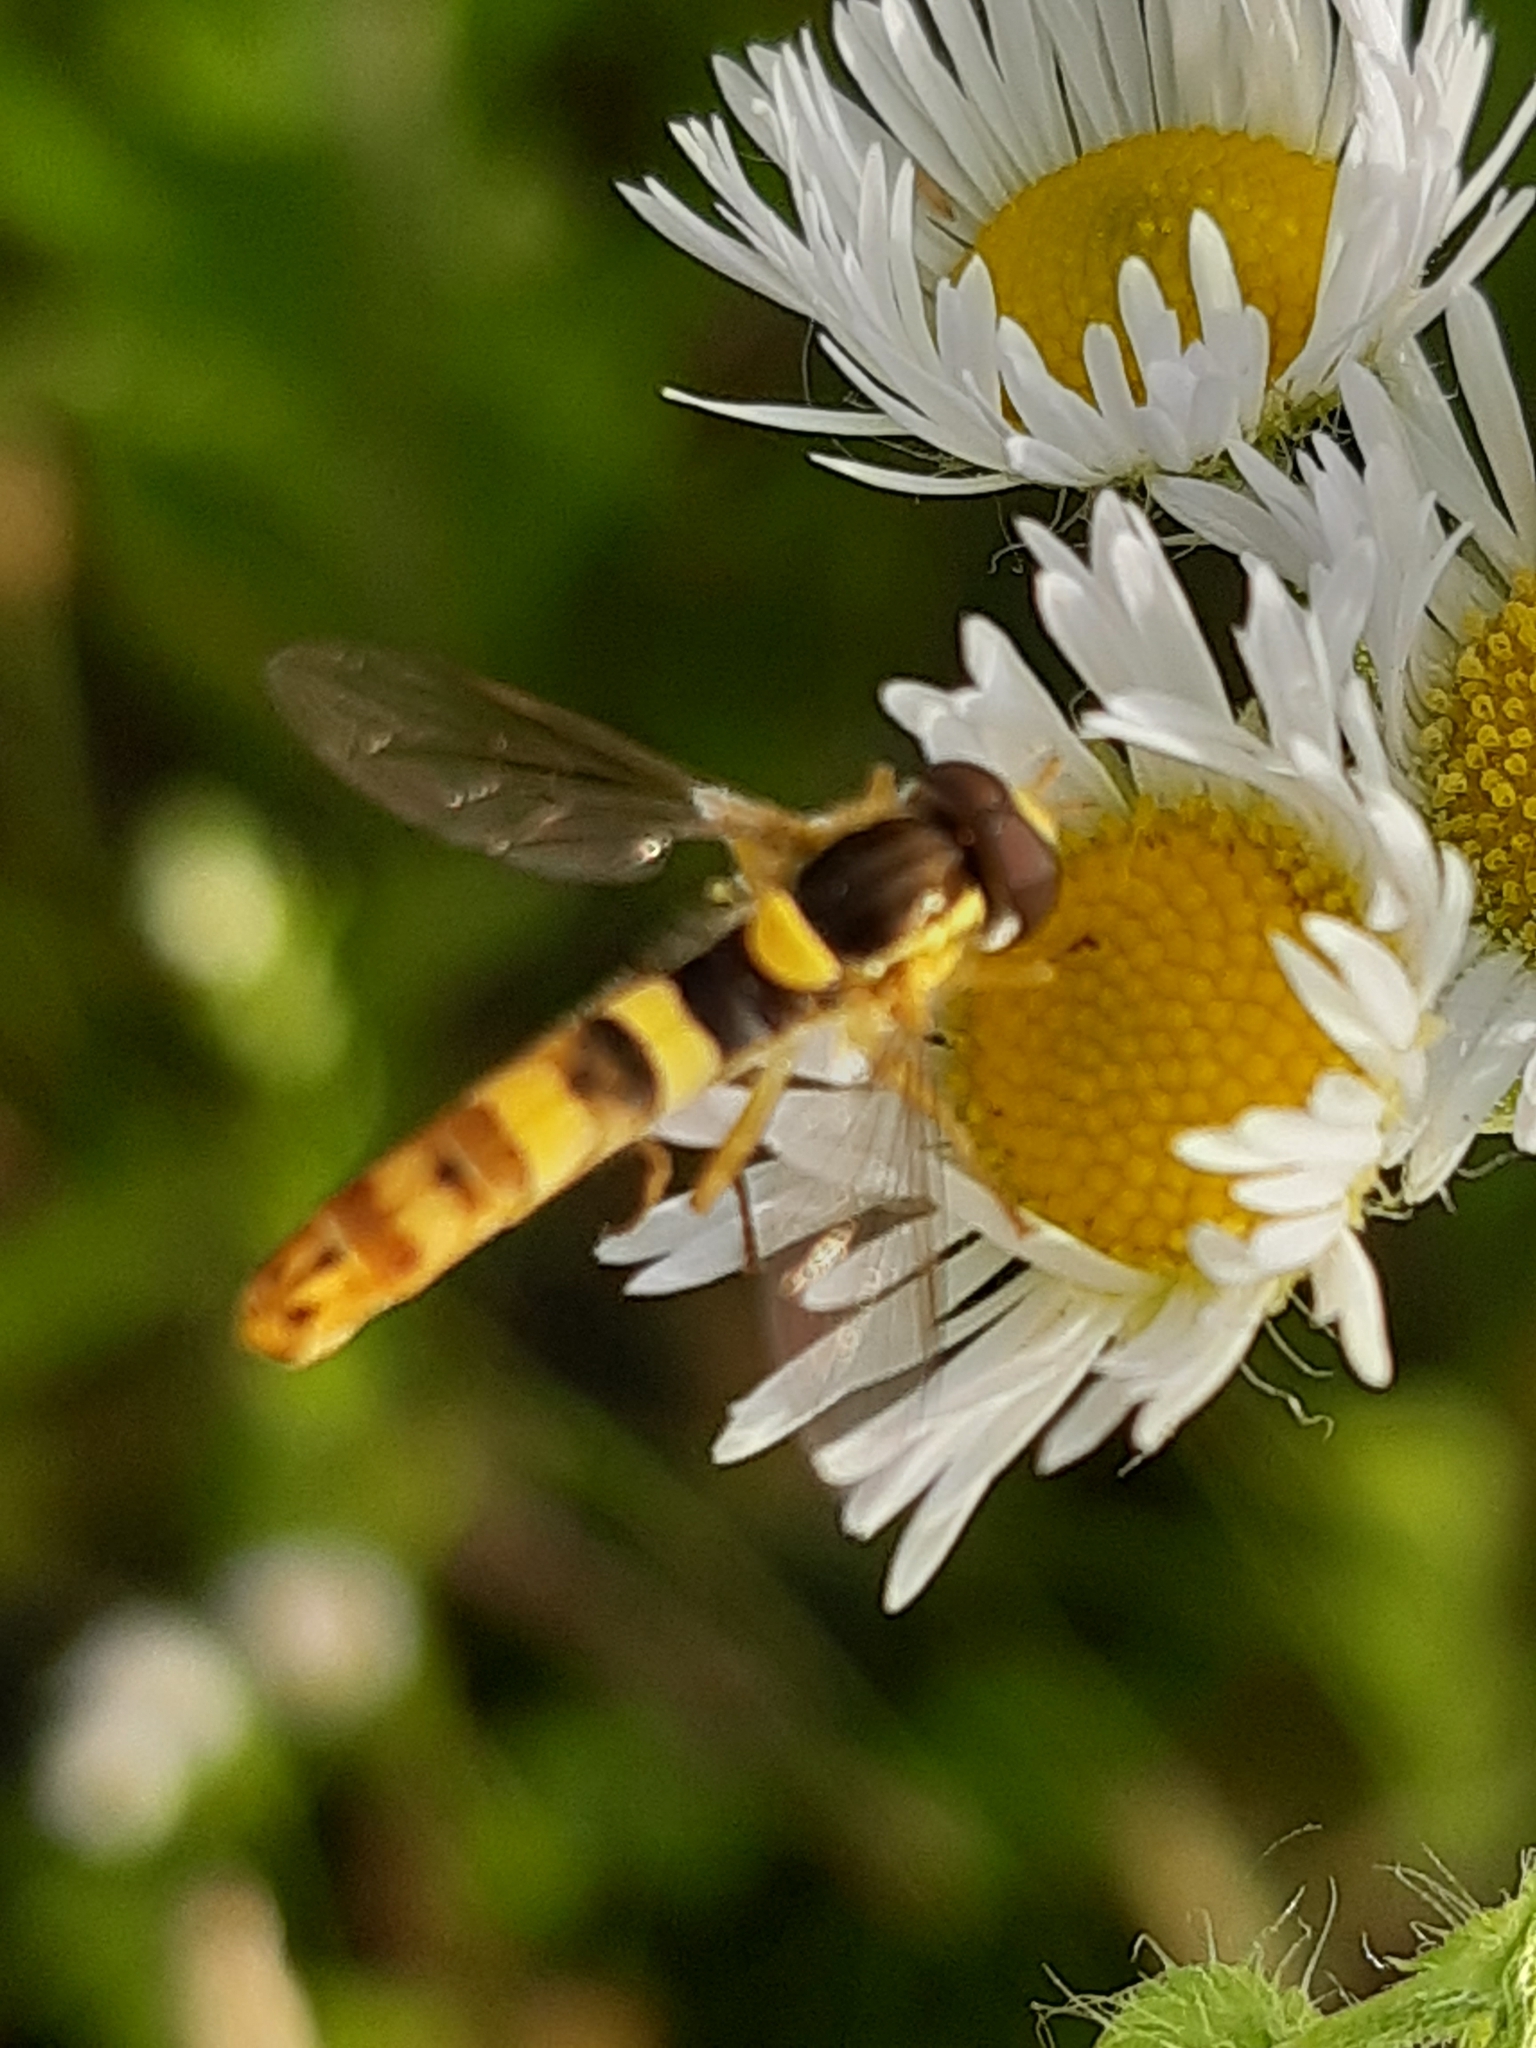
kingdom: Animalia
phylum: Arthropoda
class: Insecta
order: Diptera
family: Syrphidae
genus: Sphaerophoria
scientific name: Sphaerophoria scripta
